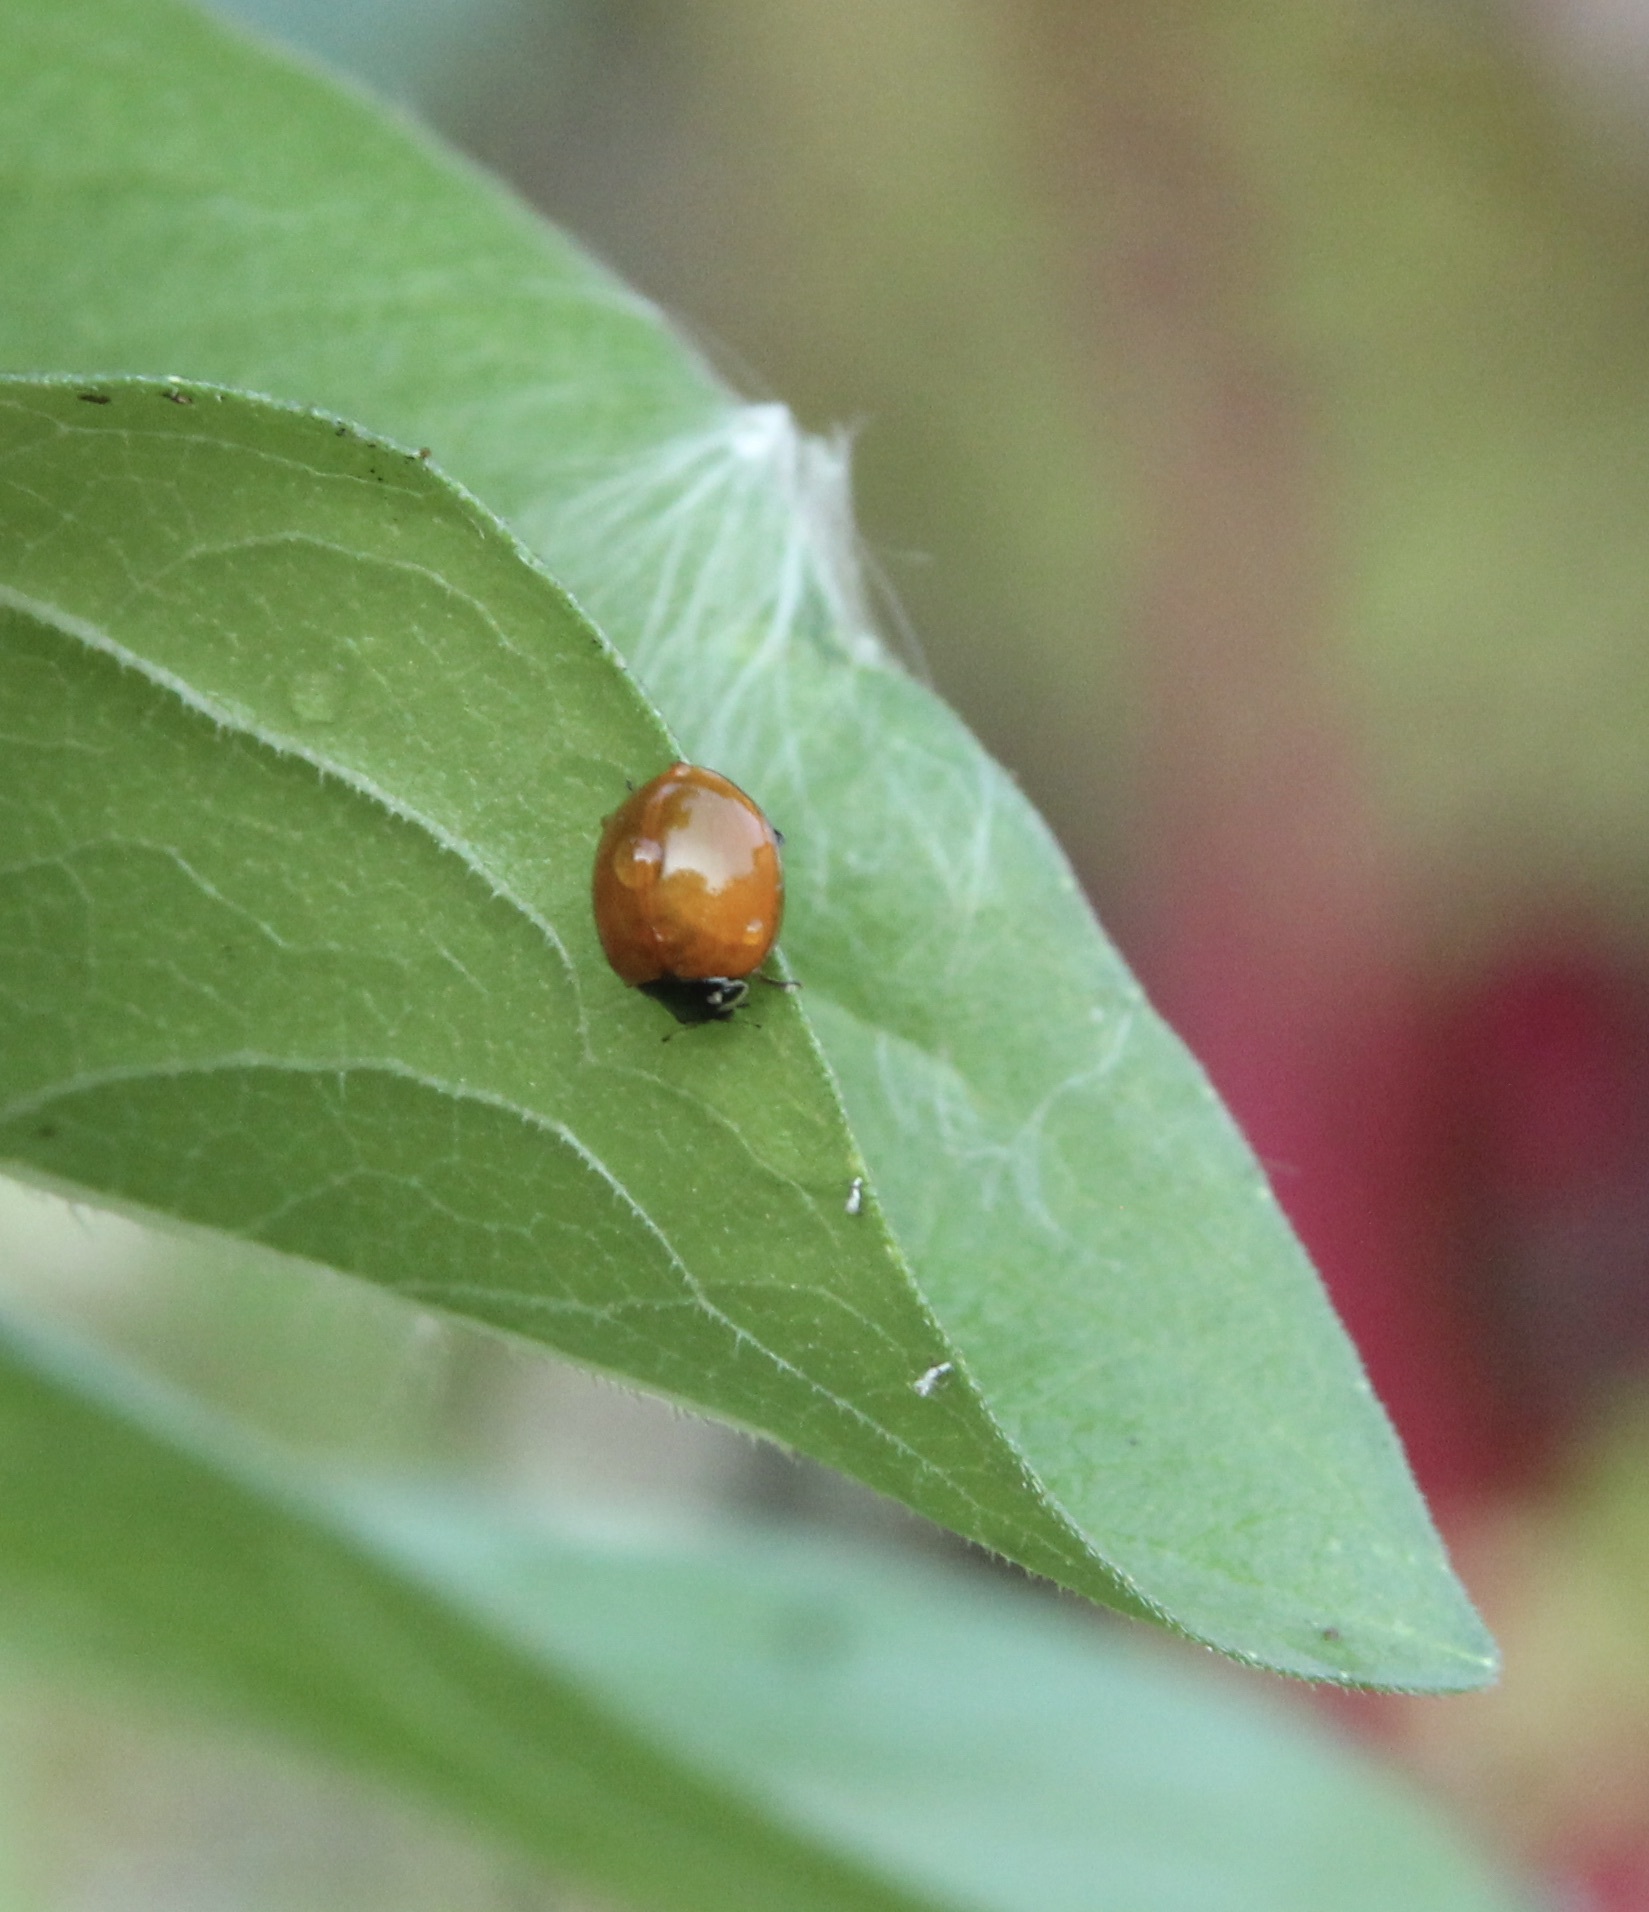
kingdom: Animalia
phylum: Arthropoda
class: Insecta
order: Coleoptera
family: Coccinellidae
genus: Cycloneda
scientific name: Cycloneda sanguinea
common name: Ladybird beetle
